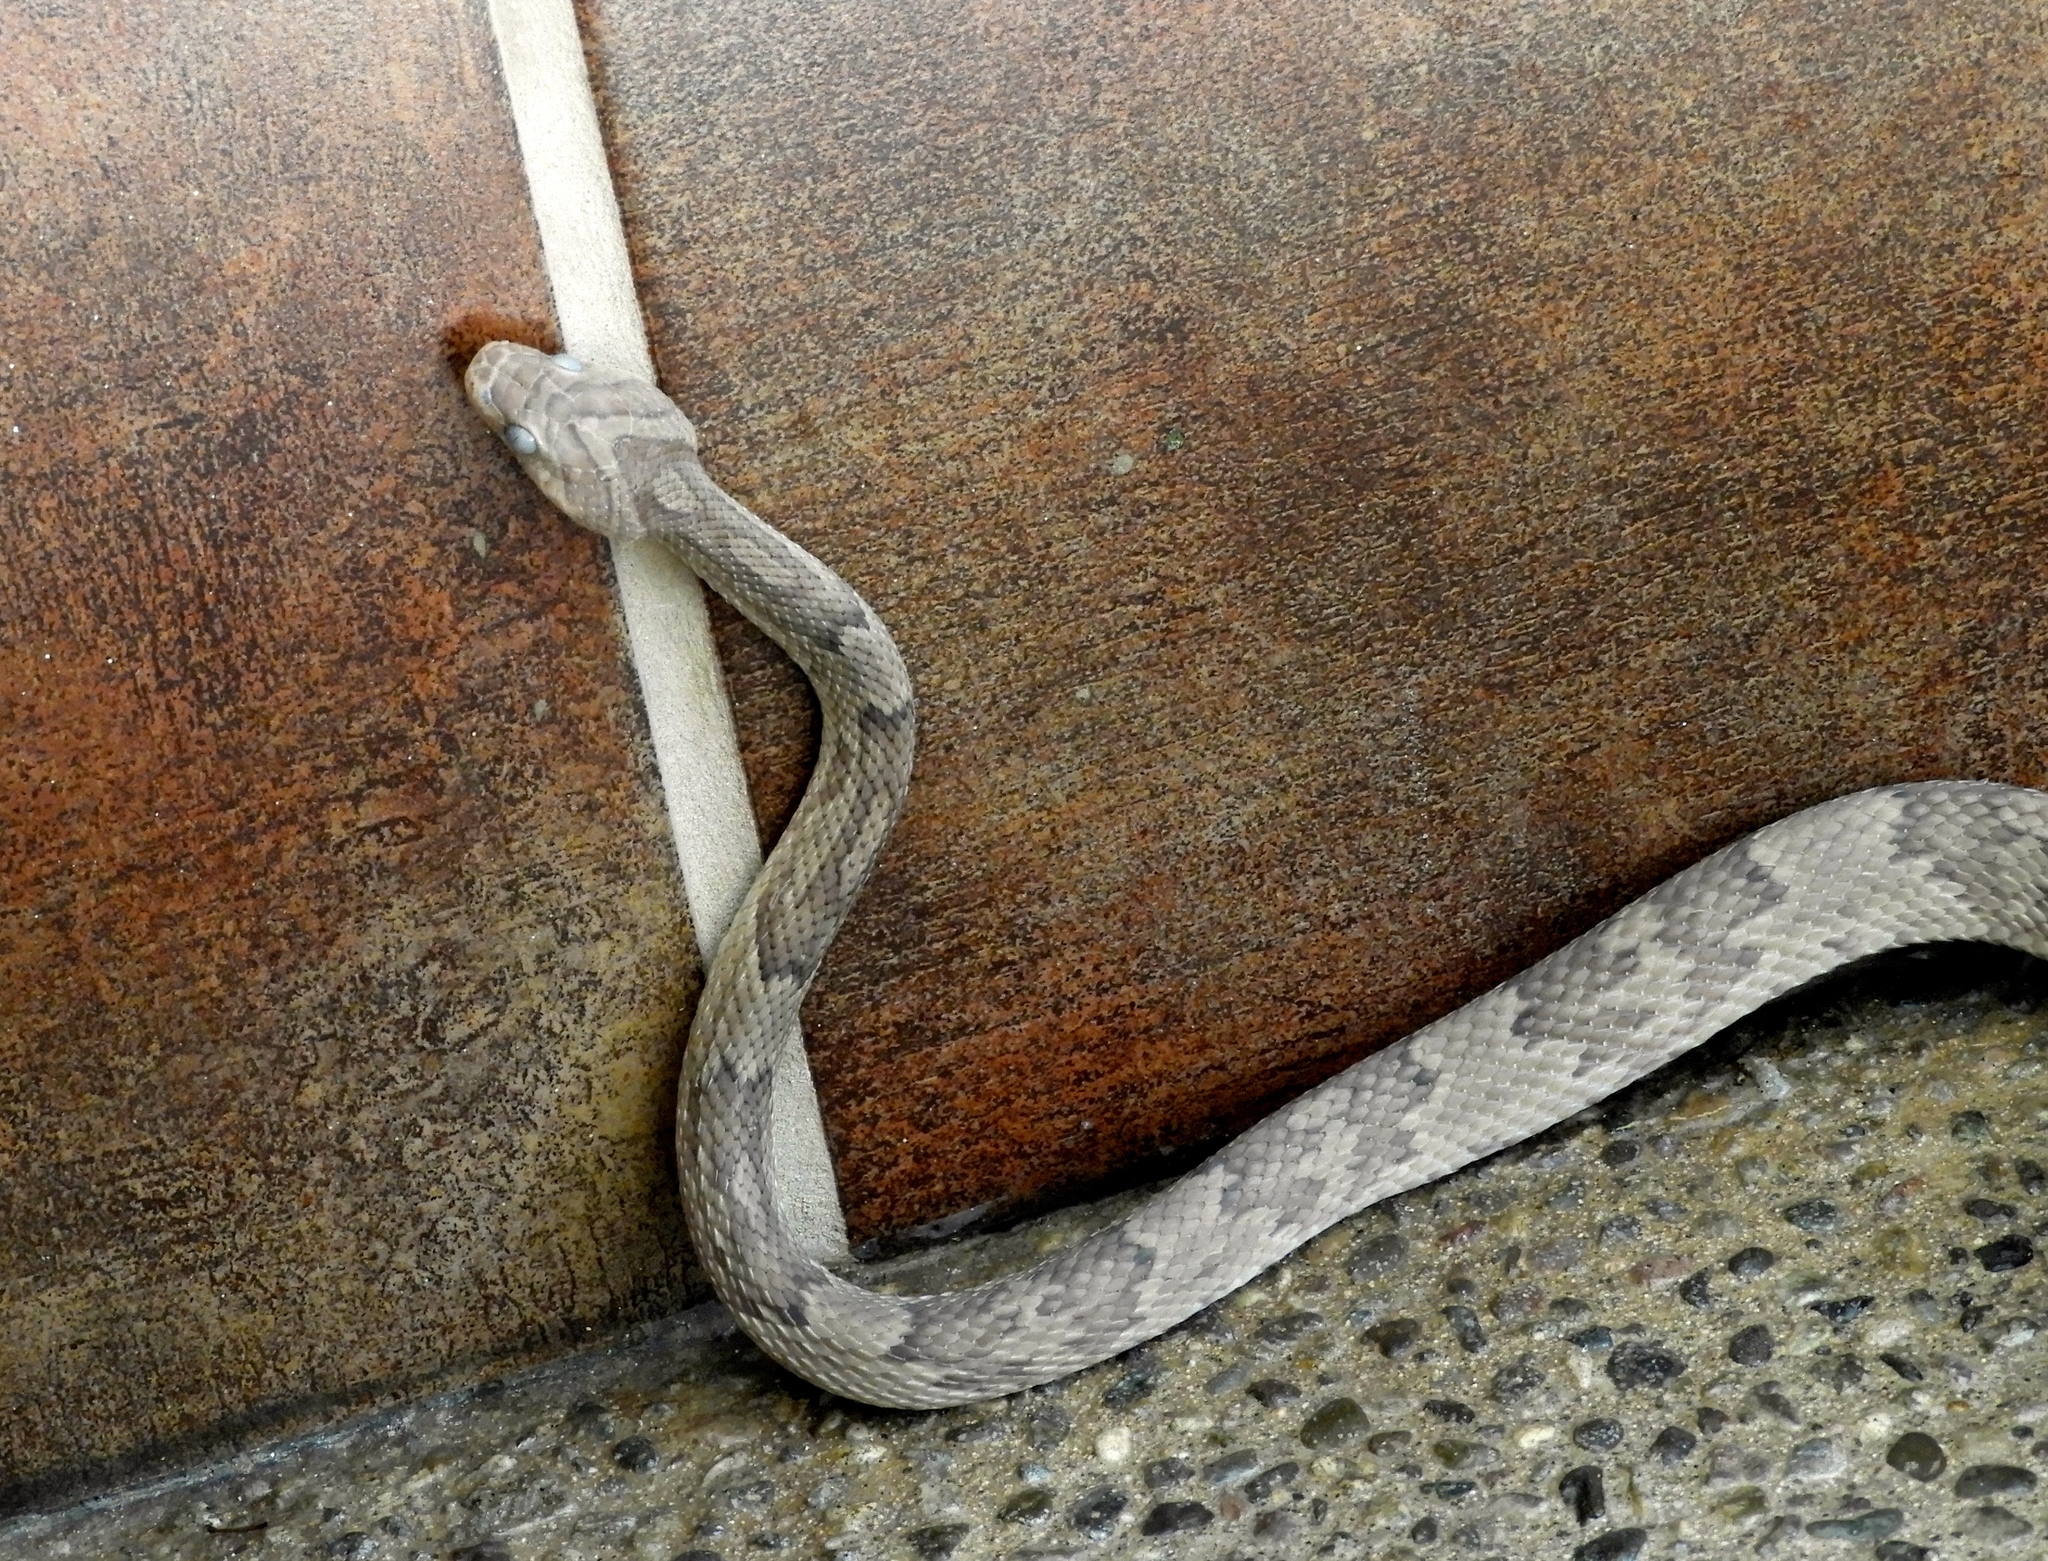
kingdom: Animalia
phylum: Chordata
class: Squamata
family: Colubridae
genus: Trimorphodon
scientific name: Trimorphodon paucimaculatus
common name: Sinaloan lyresnake
